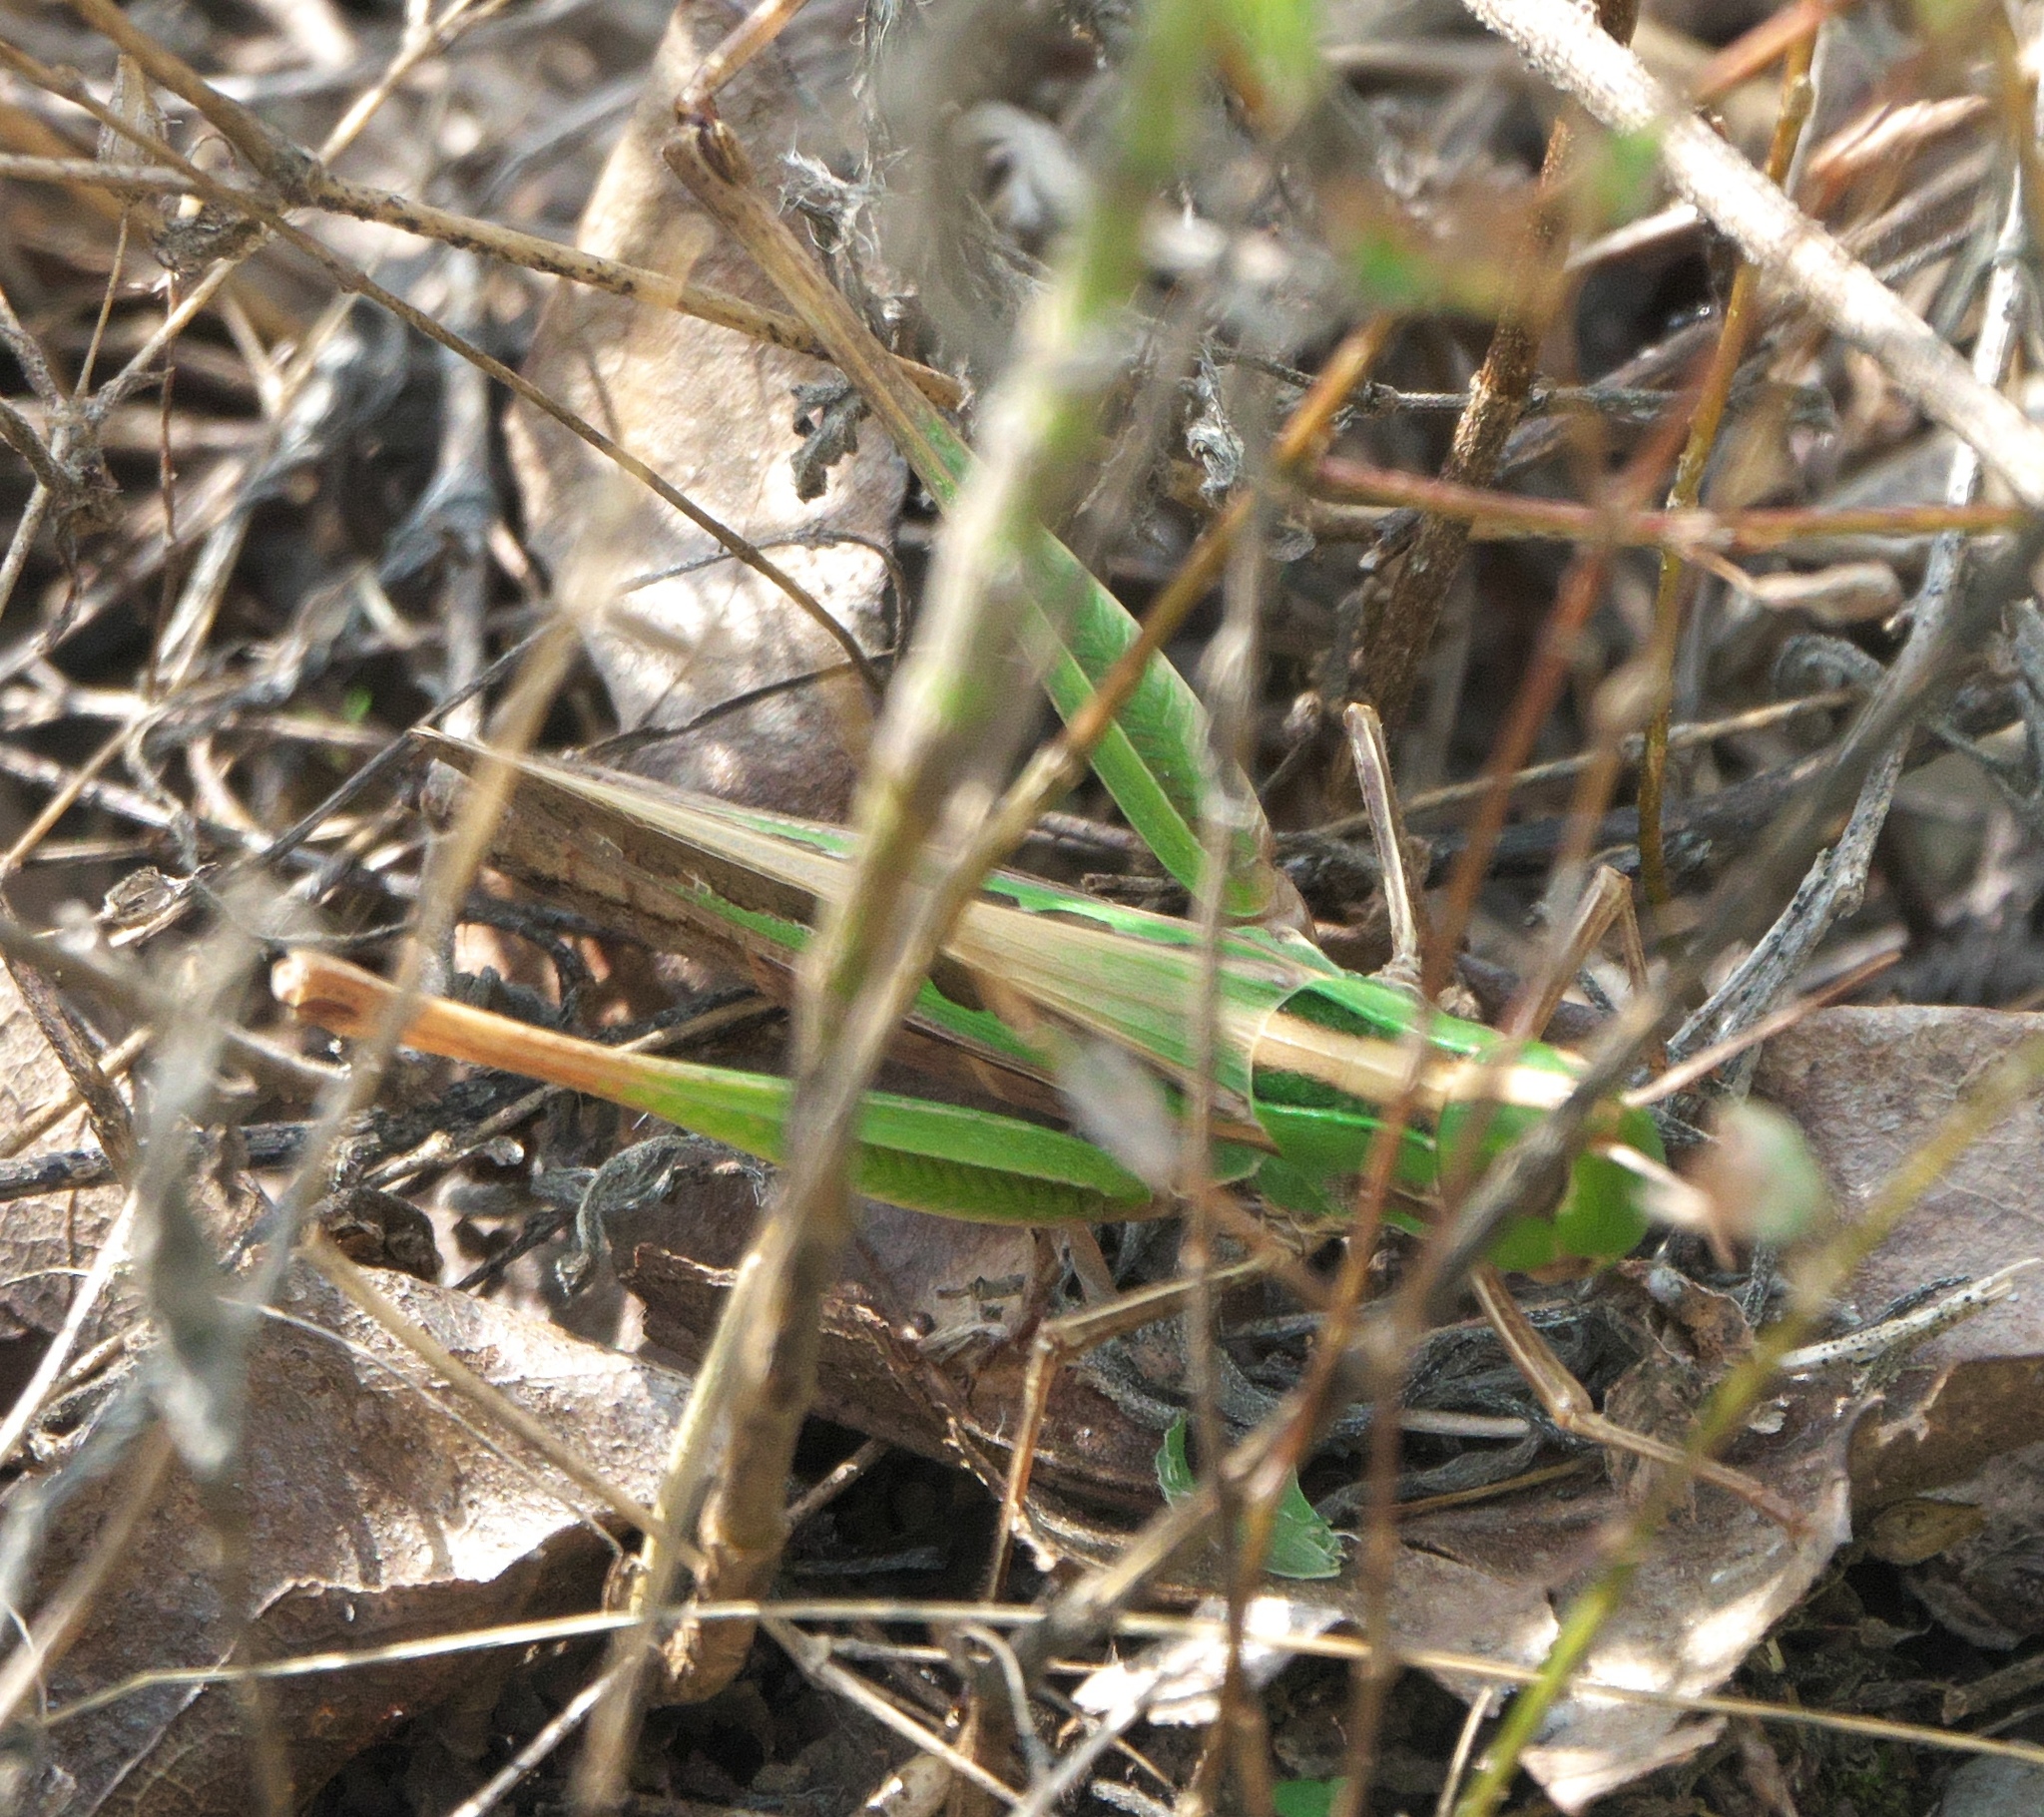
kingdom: Animalia
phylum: Arthropoda
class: Insecta
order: Orthoptera
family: Acrididae
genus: Syrbula
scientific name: Syrbula admirabilis
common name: Handsome grasshopper
